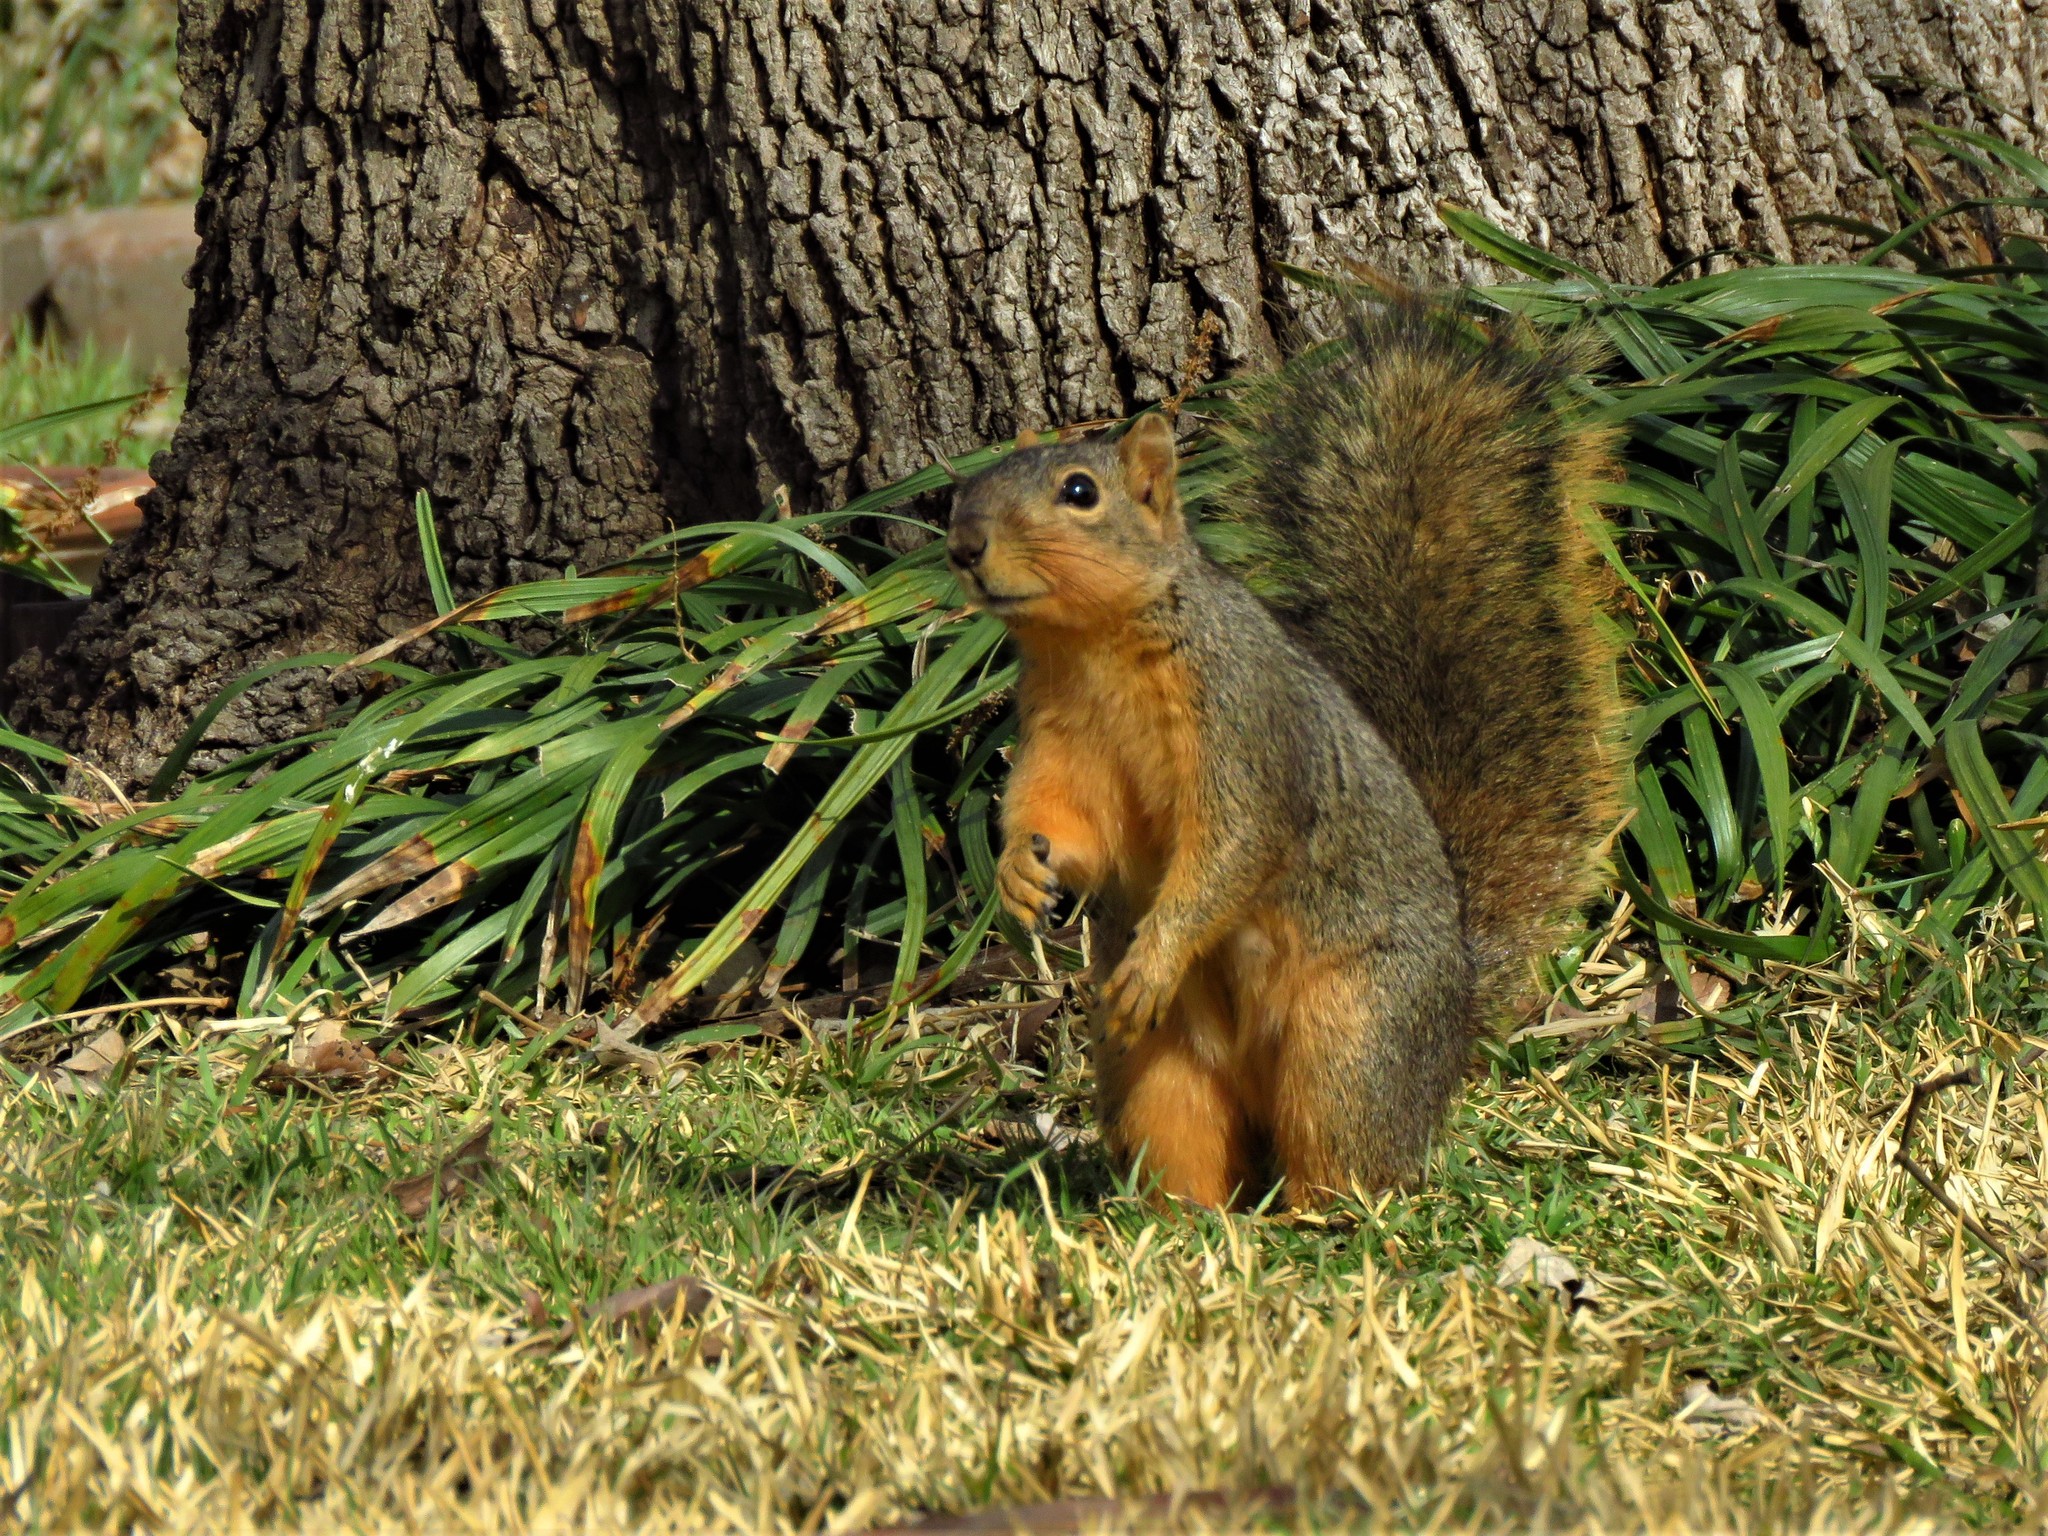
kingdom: Animalia
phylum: Chordata
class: Mammalia
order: Rodentia
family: Sciuridae
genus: Sciurus
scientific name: Sciurus niger
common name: Fox squirrel
